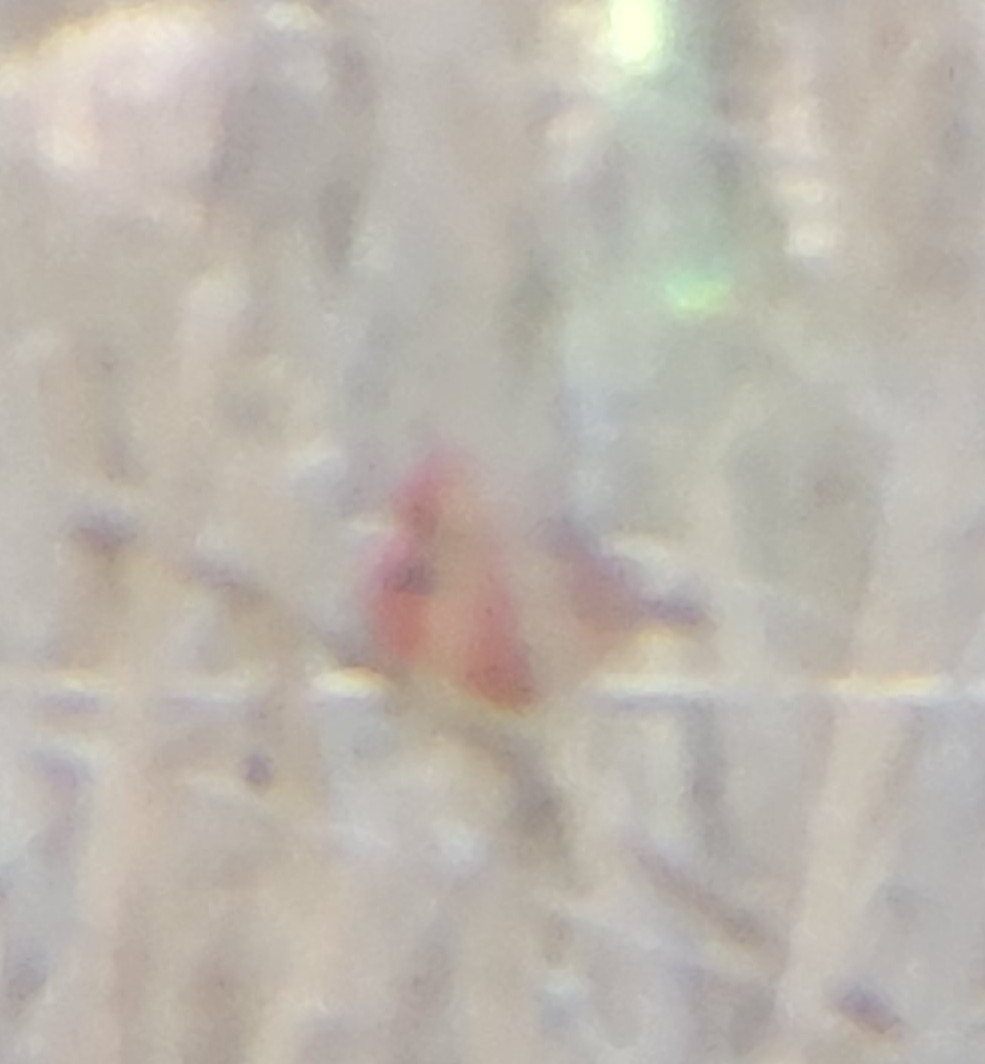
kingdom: Animalia
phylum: Chordata
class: Aves
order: Passeriformes
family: Cardinalidae
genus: Cardinalis
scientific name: Cardinalis cardinalis
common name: Northern cardinal
